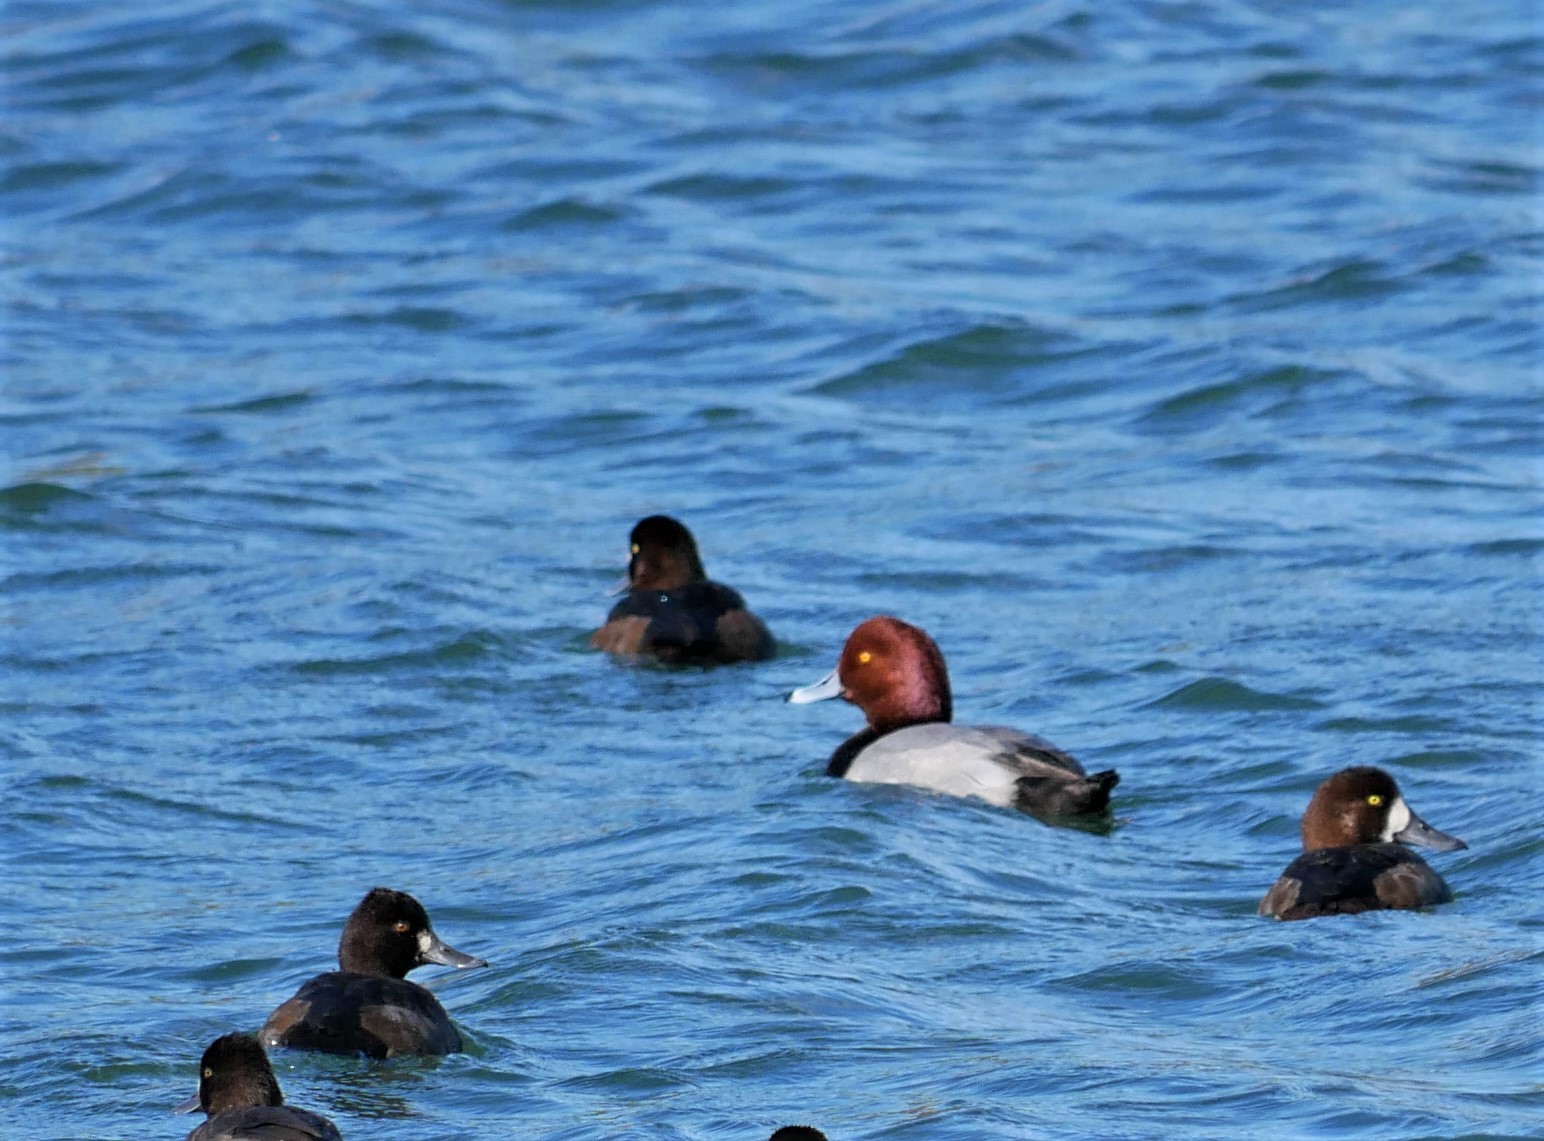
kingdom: Animalia
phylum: Chordata
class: Aves
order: Anseriformes
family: Anatidae
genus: Aythya
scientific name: Aythya americana
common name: Redhead
